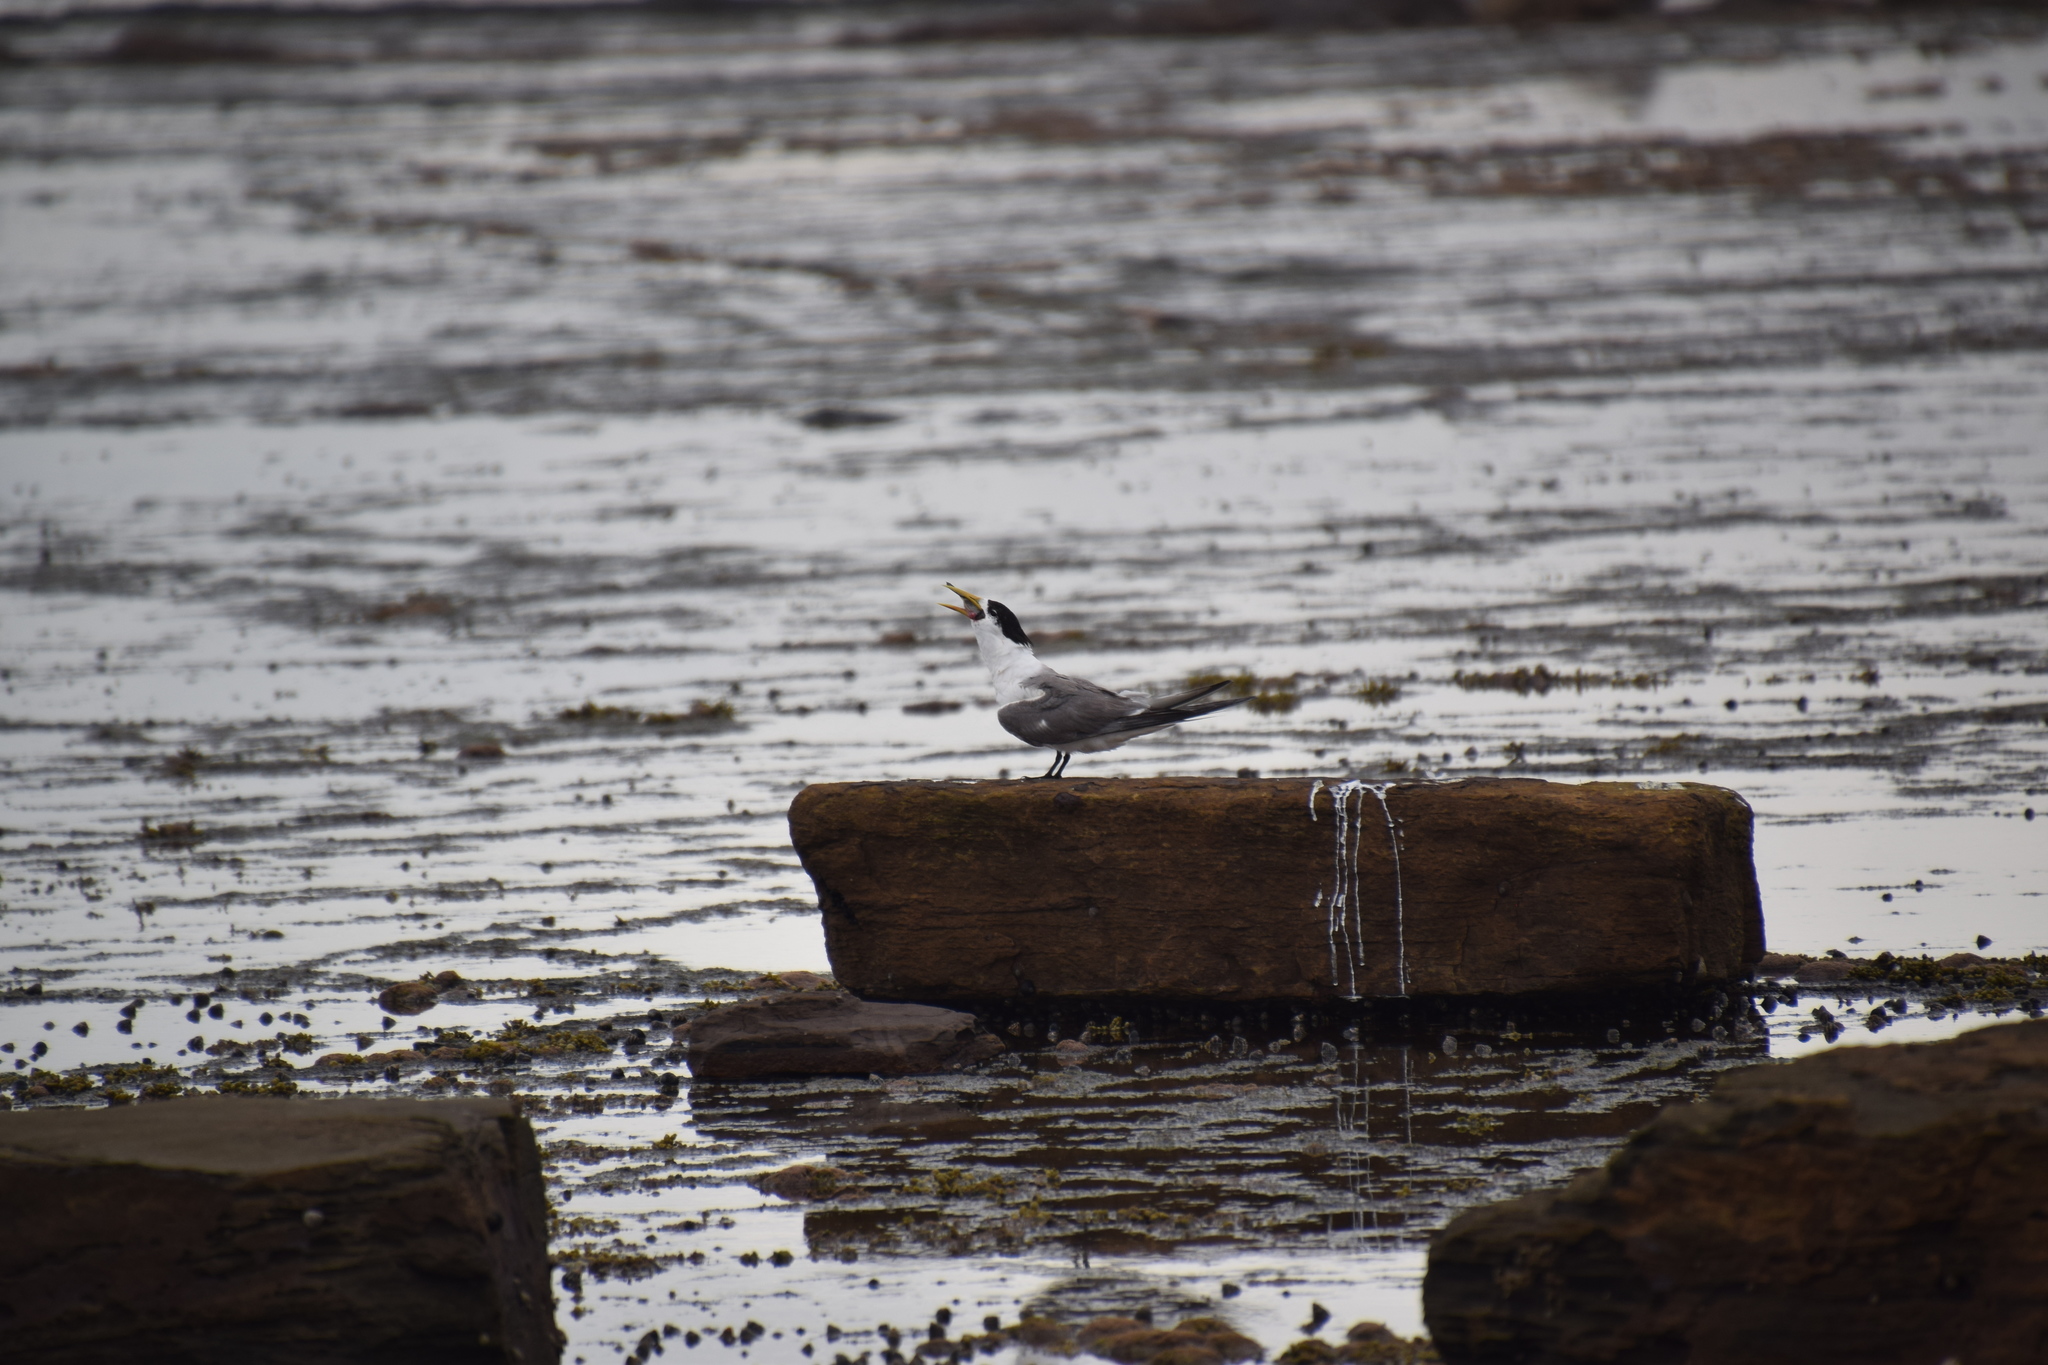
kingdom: Animalia
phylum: Chordata
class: Aves
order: Charadriiformes
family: Laridae
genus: Thalasseus
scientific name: Thalasseus bergii
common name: Greater crested tern
